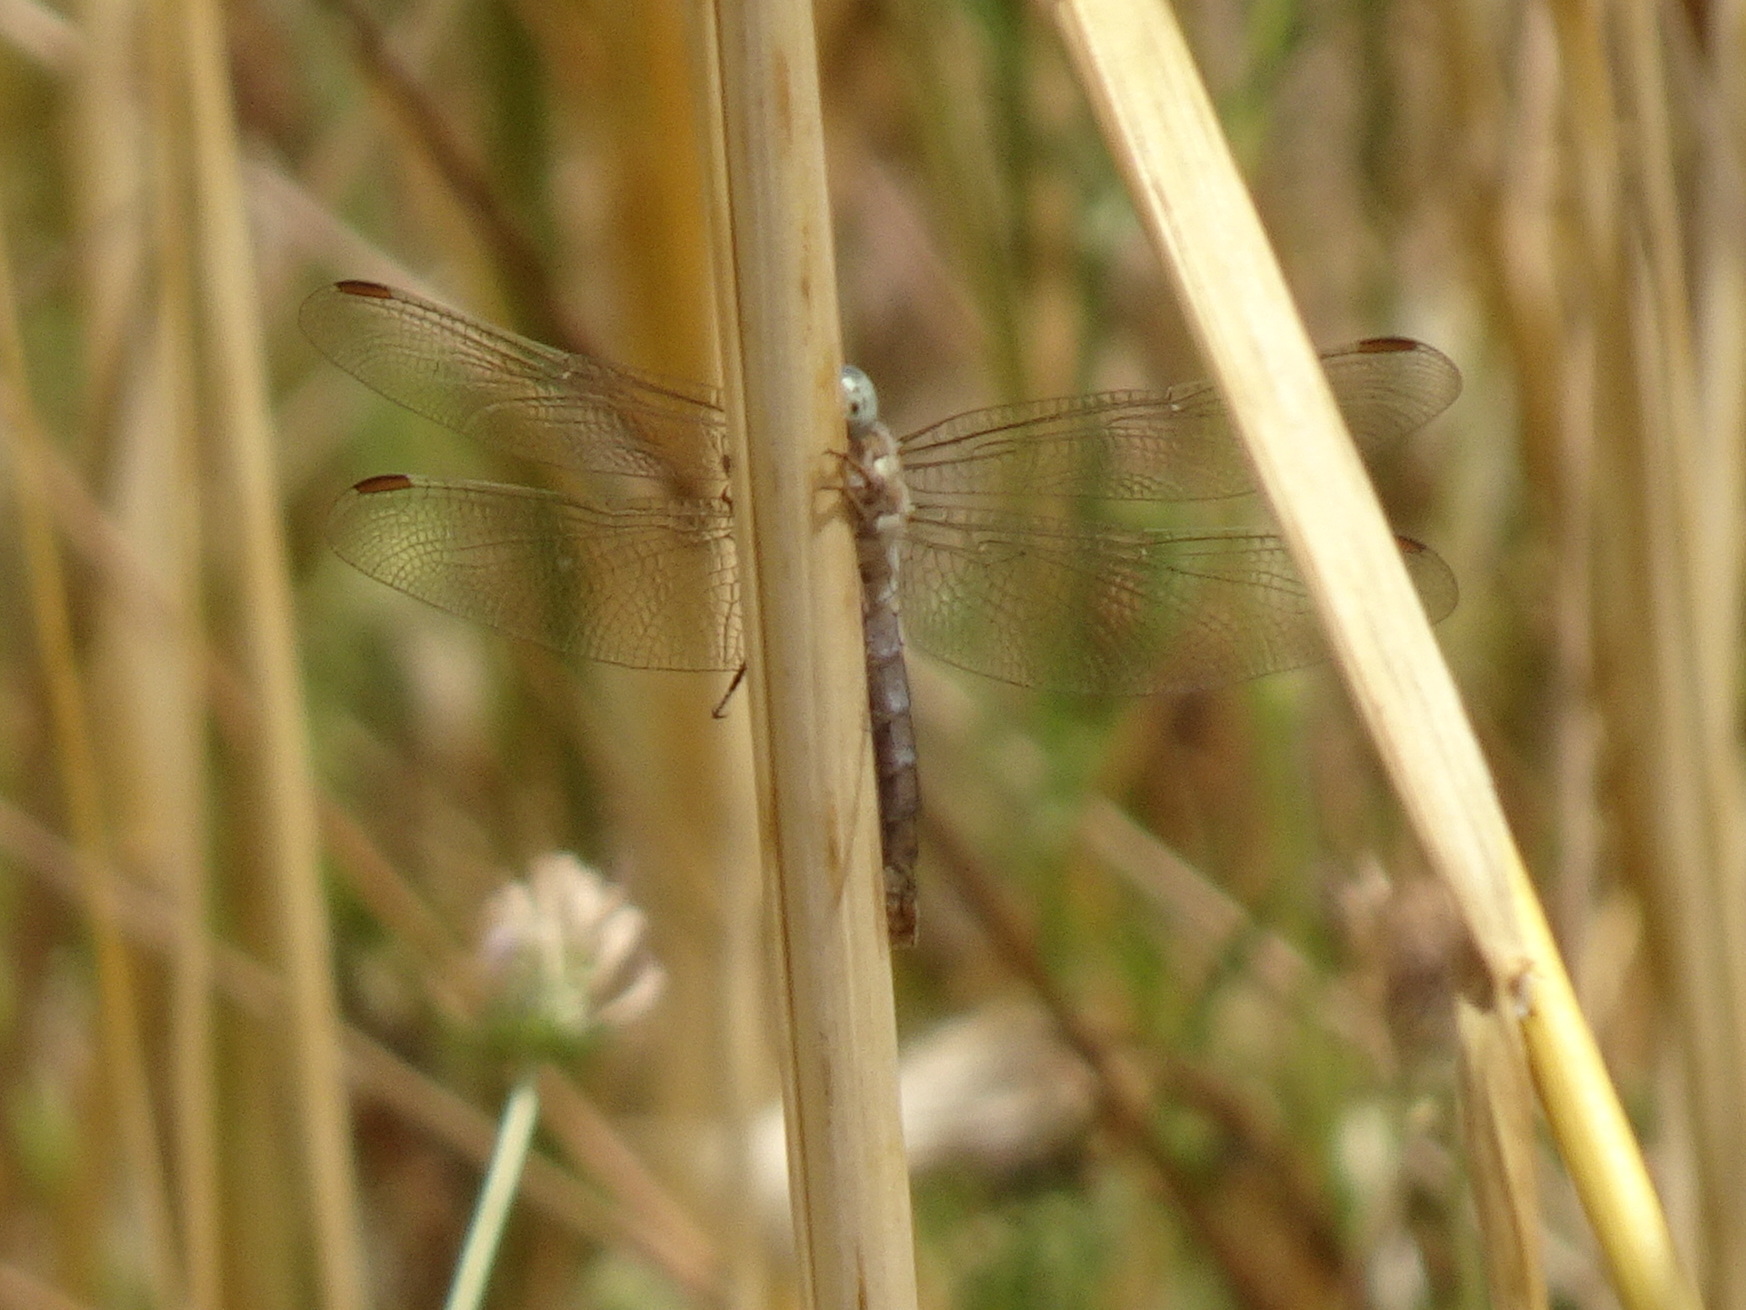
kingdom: Animalia
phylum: Arthropoda
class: Insecta
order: Odonata
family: Libellulidae
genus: Orthetrum
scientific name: Orthetrum brunneum
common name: Southern skimmer
